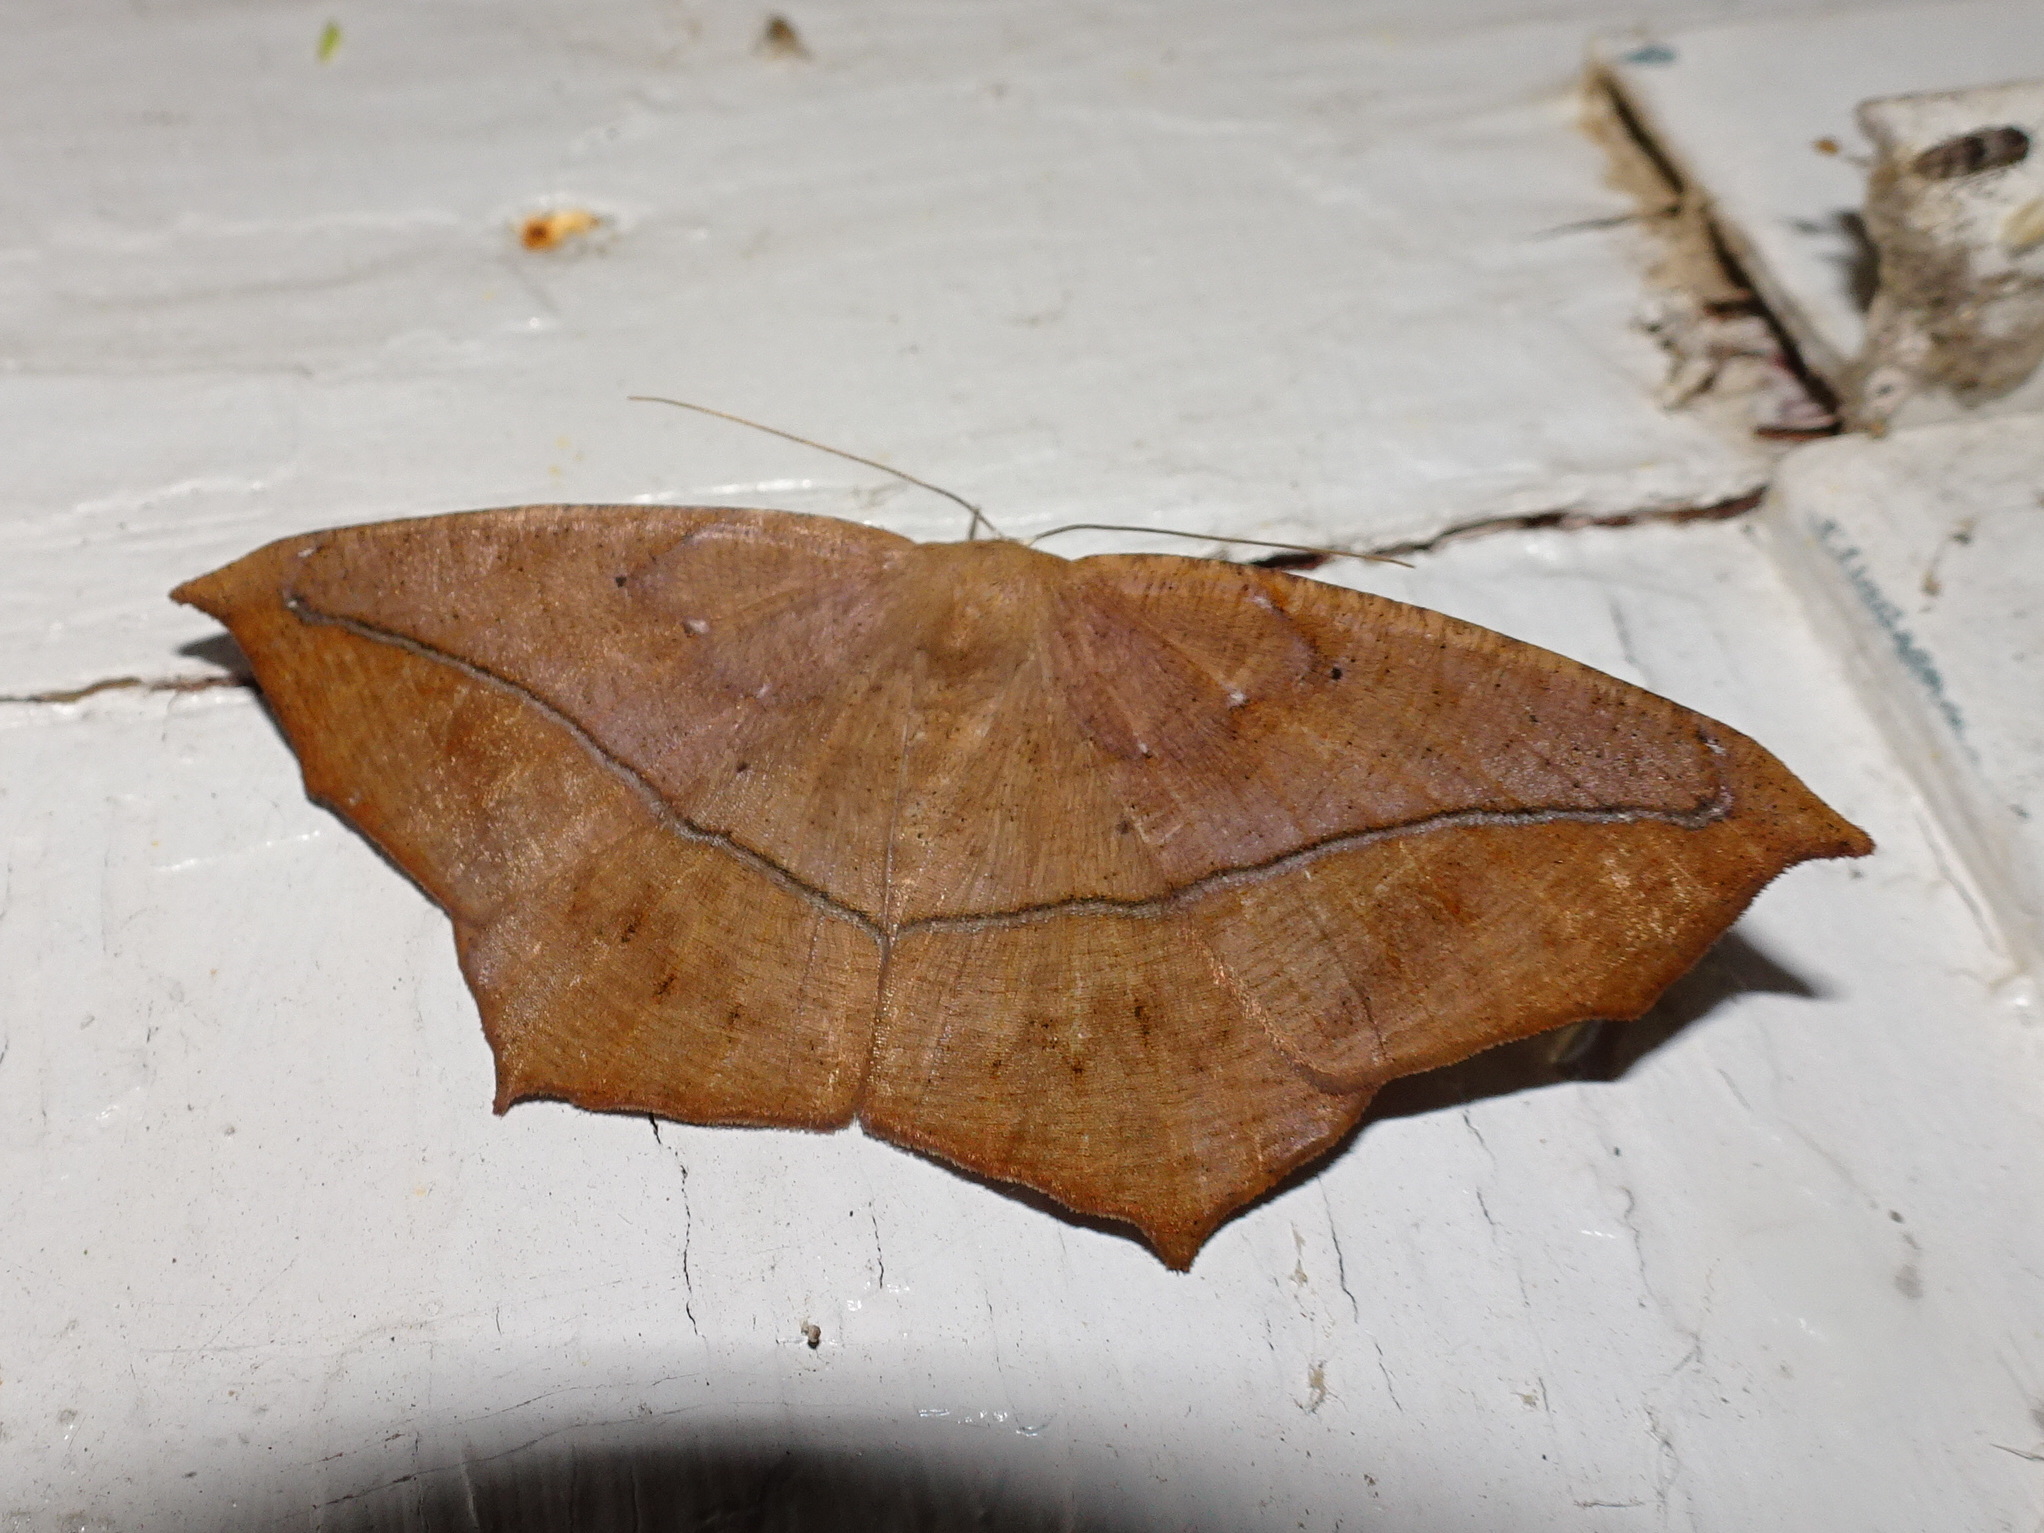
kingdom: Animalia
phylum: Arthropoda
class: Insecta
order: Lepidoptera
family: Geometridae
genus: Prochoerodes
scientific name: Prochoerodes lineola
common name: Large maple spanworm
